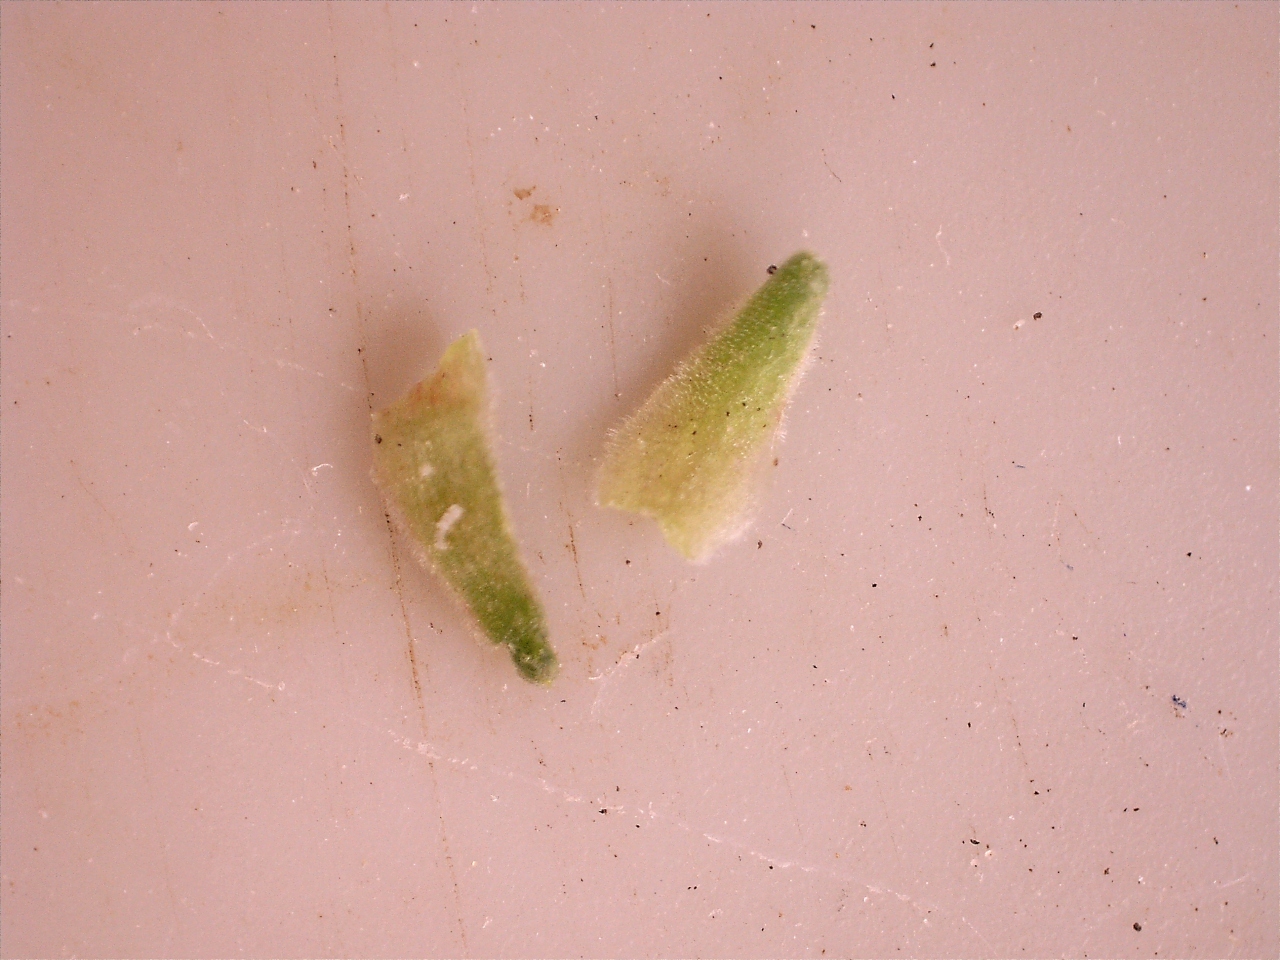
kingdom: Plantae
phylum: Tracheophyta
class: Magnoliopsida
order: Sapindales
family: Rutaceae
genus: Agathosma
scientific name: Agathosma ovata
